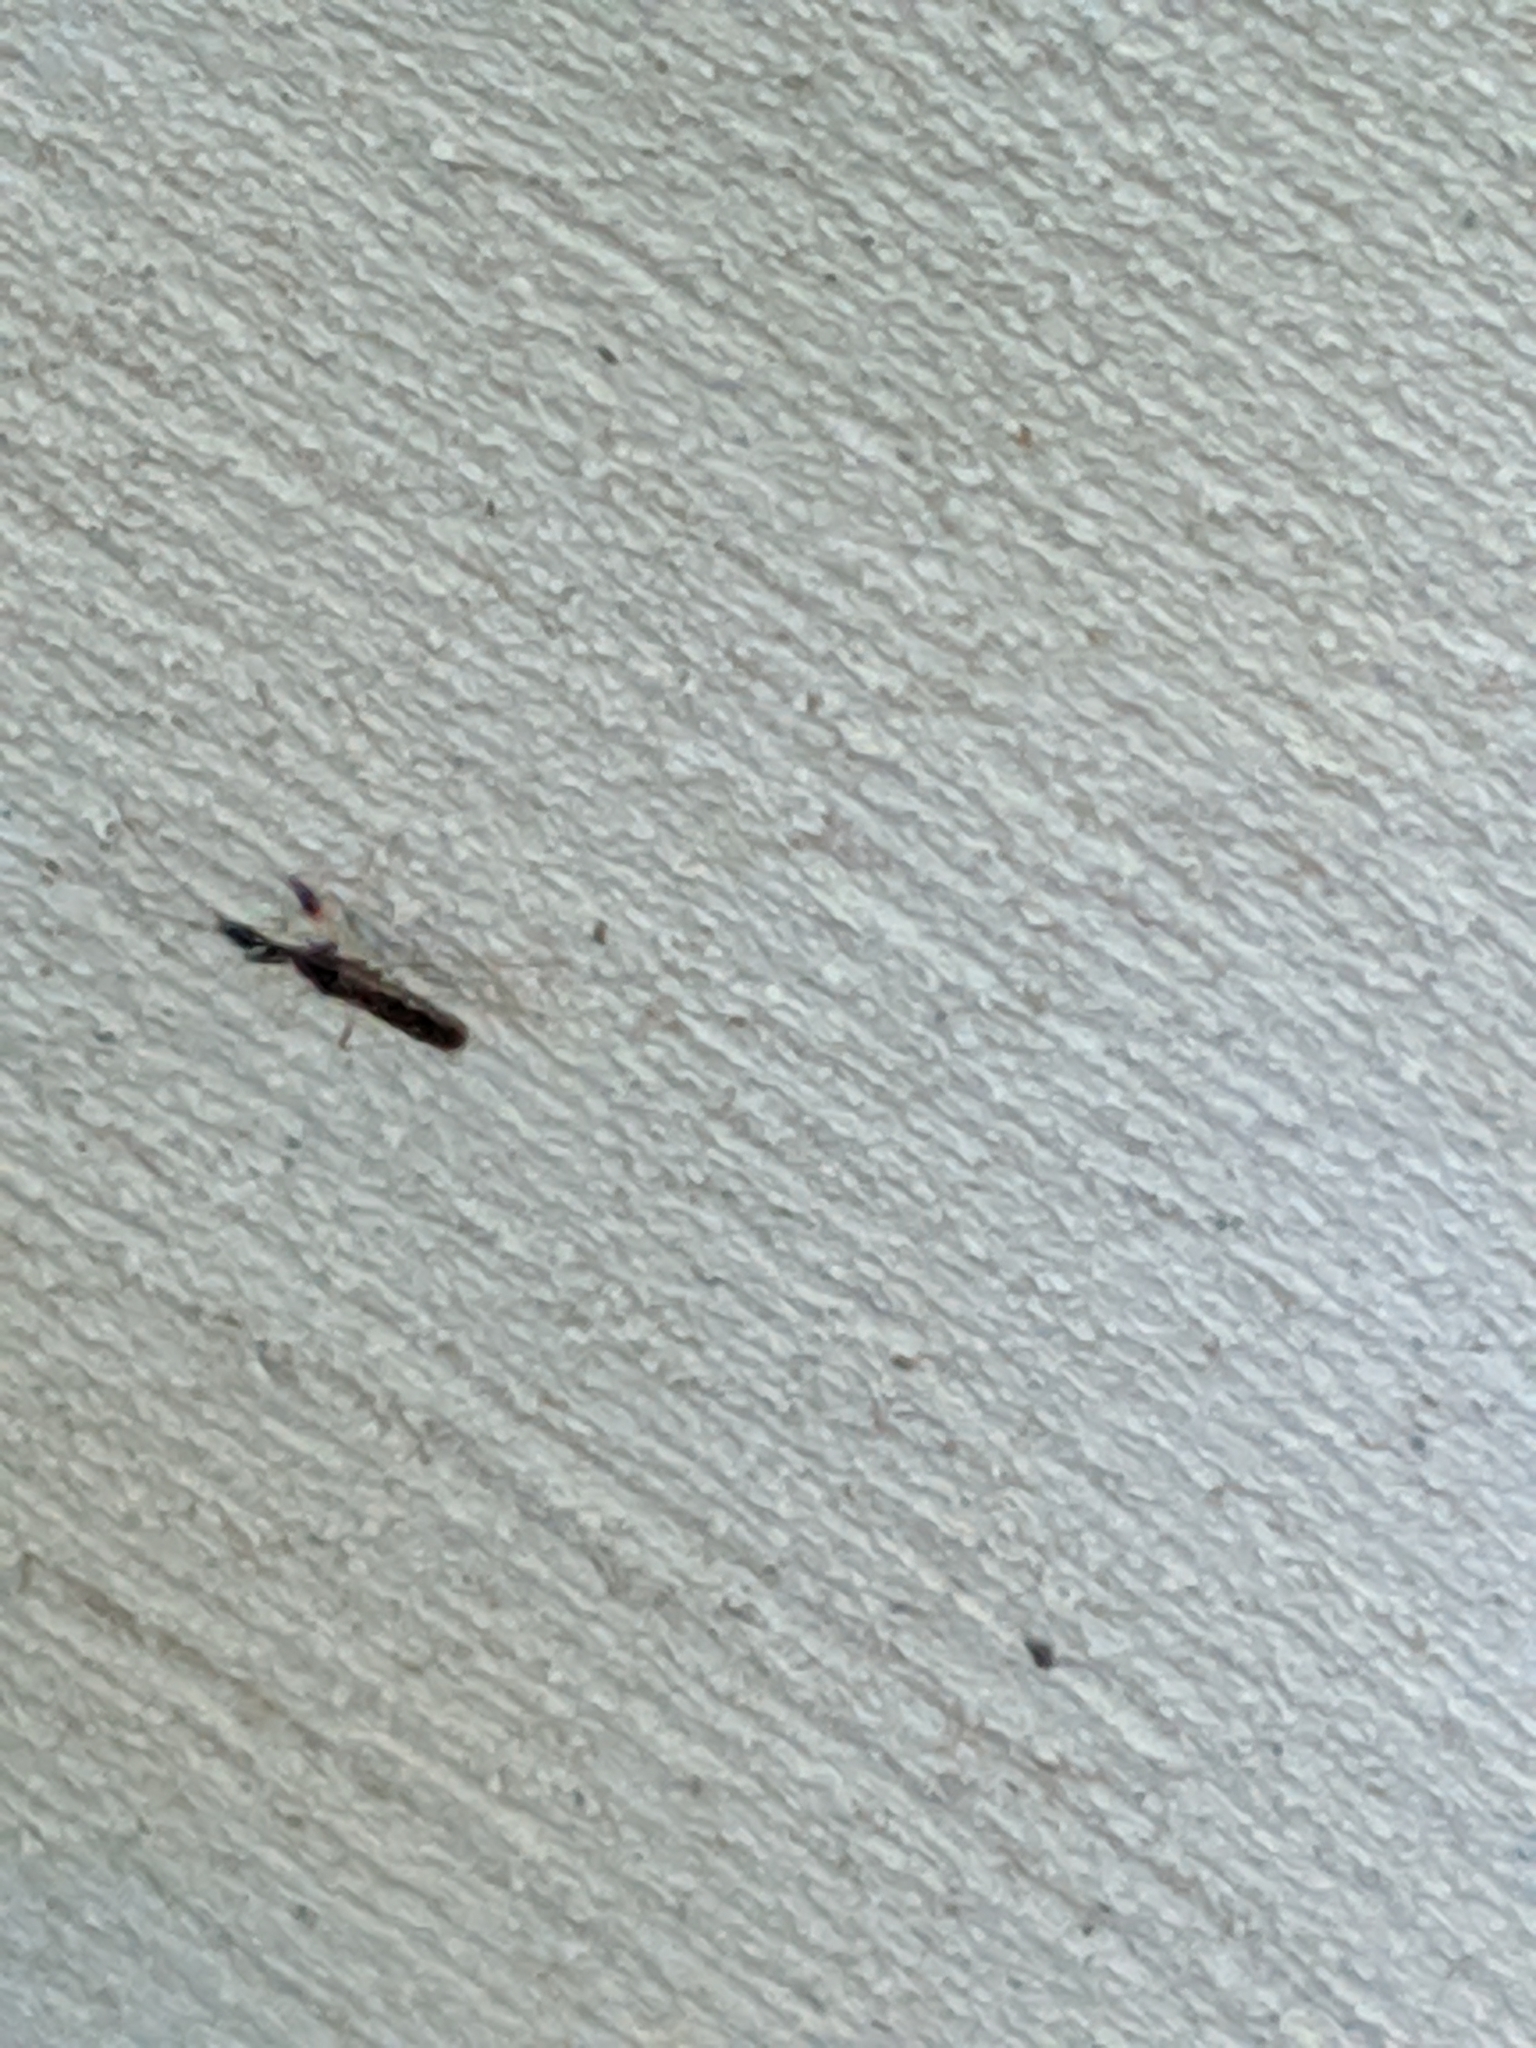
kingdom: Animalia
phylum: Arthropoda
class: Insecta
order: Hemiptera
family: Rhyparochromidae
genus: Myodocha
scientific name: Myodocha serripes
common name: Long-necked seed bug
